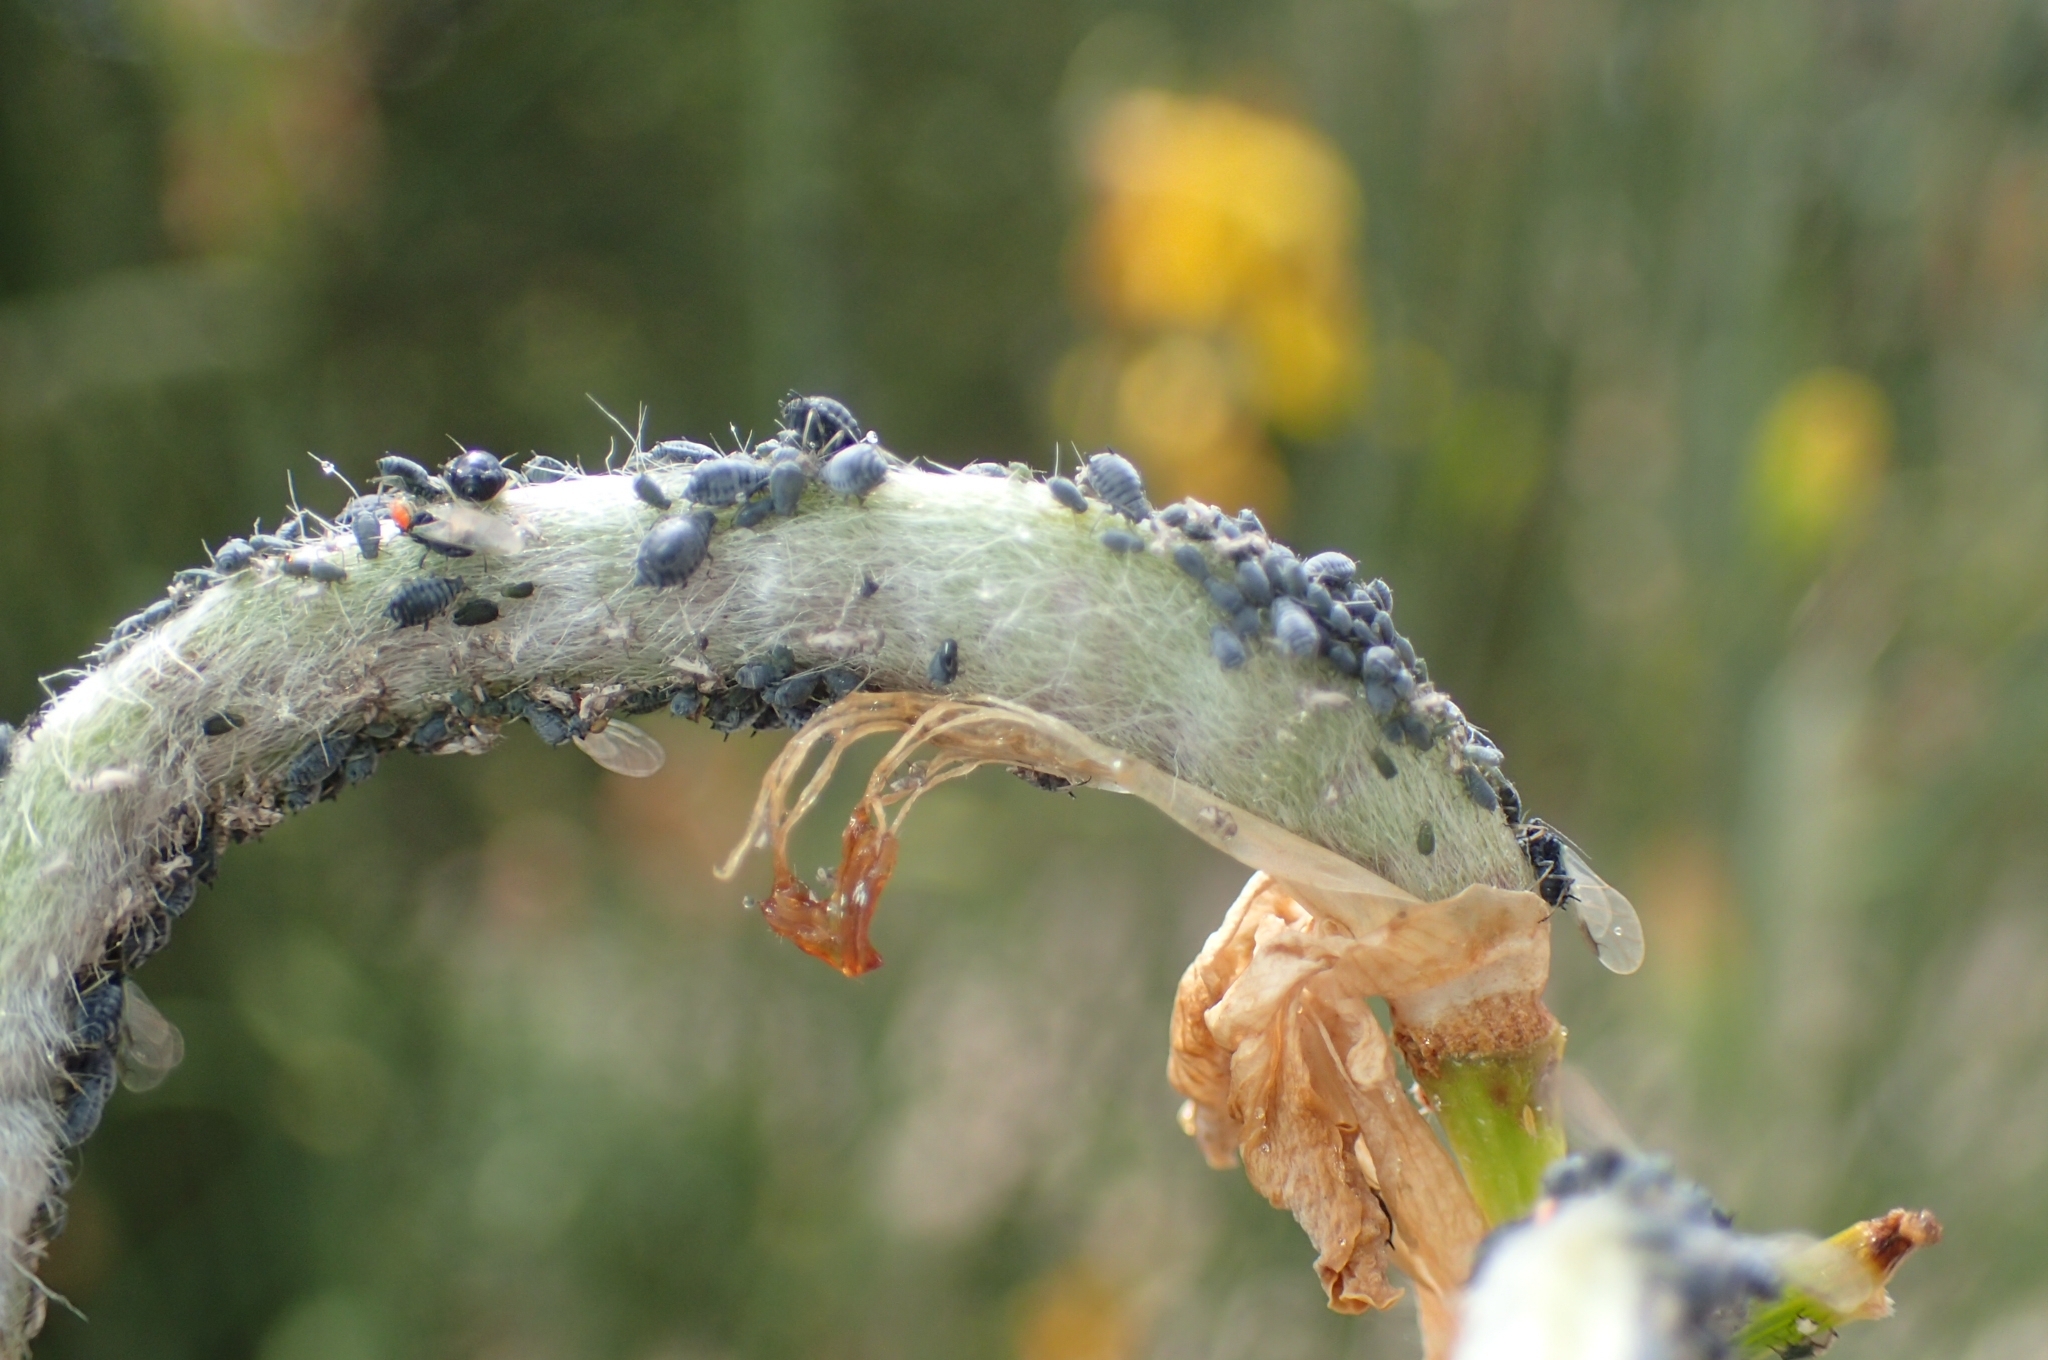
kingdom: Animalia
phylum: Arthropoda
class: Insecta
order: Hemiptera
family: Aphididae
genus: Aphis
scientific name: Aphis cytisorum
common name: Broom aphid
